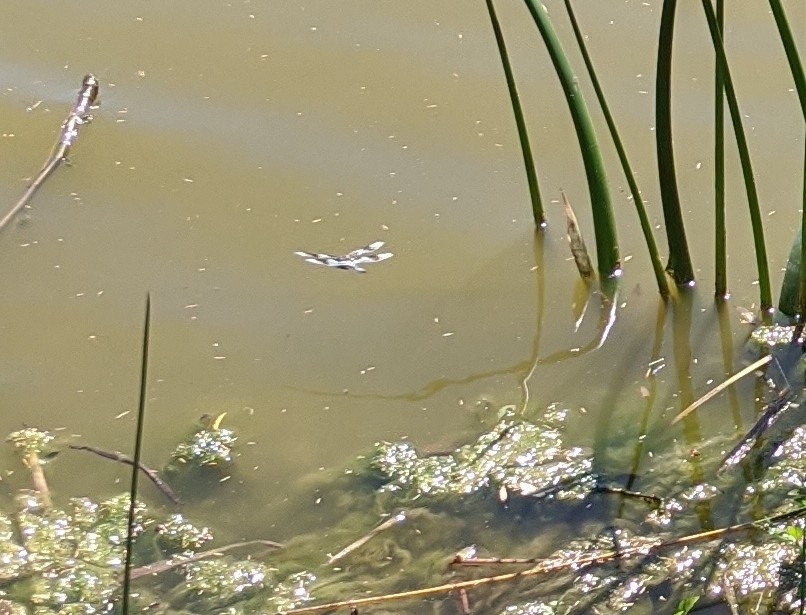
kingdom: Animalia
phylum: Arthropoda
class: Insecta
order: Odonata
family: Libellulidae
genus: Libellula
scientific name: Libellula forensis
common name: Eight-spotted skimmer
